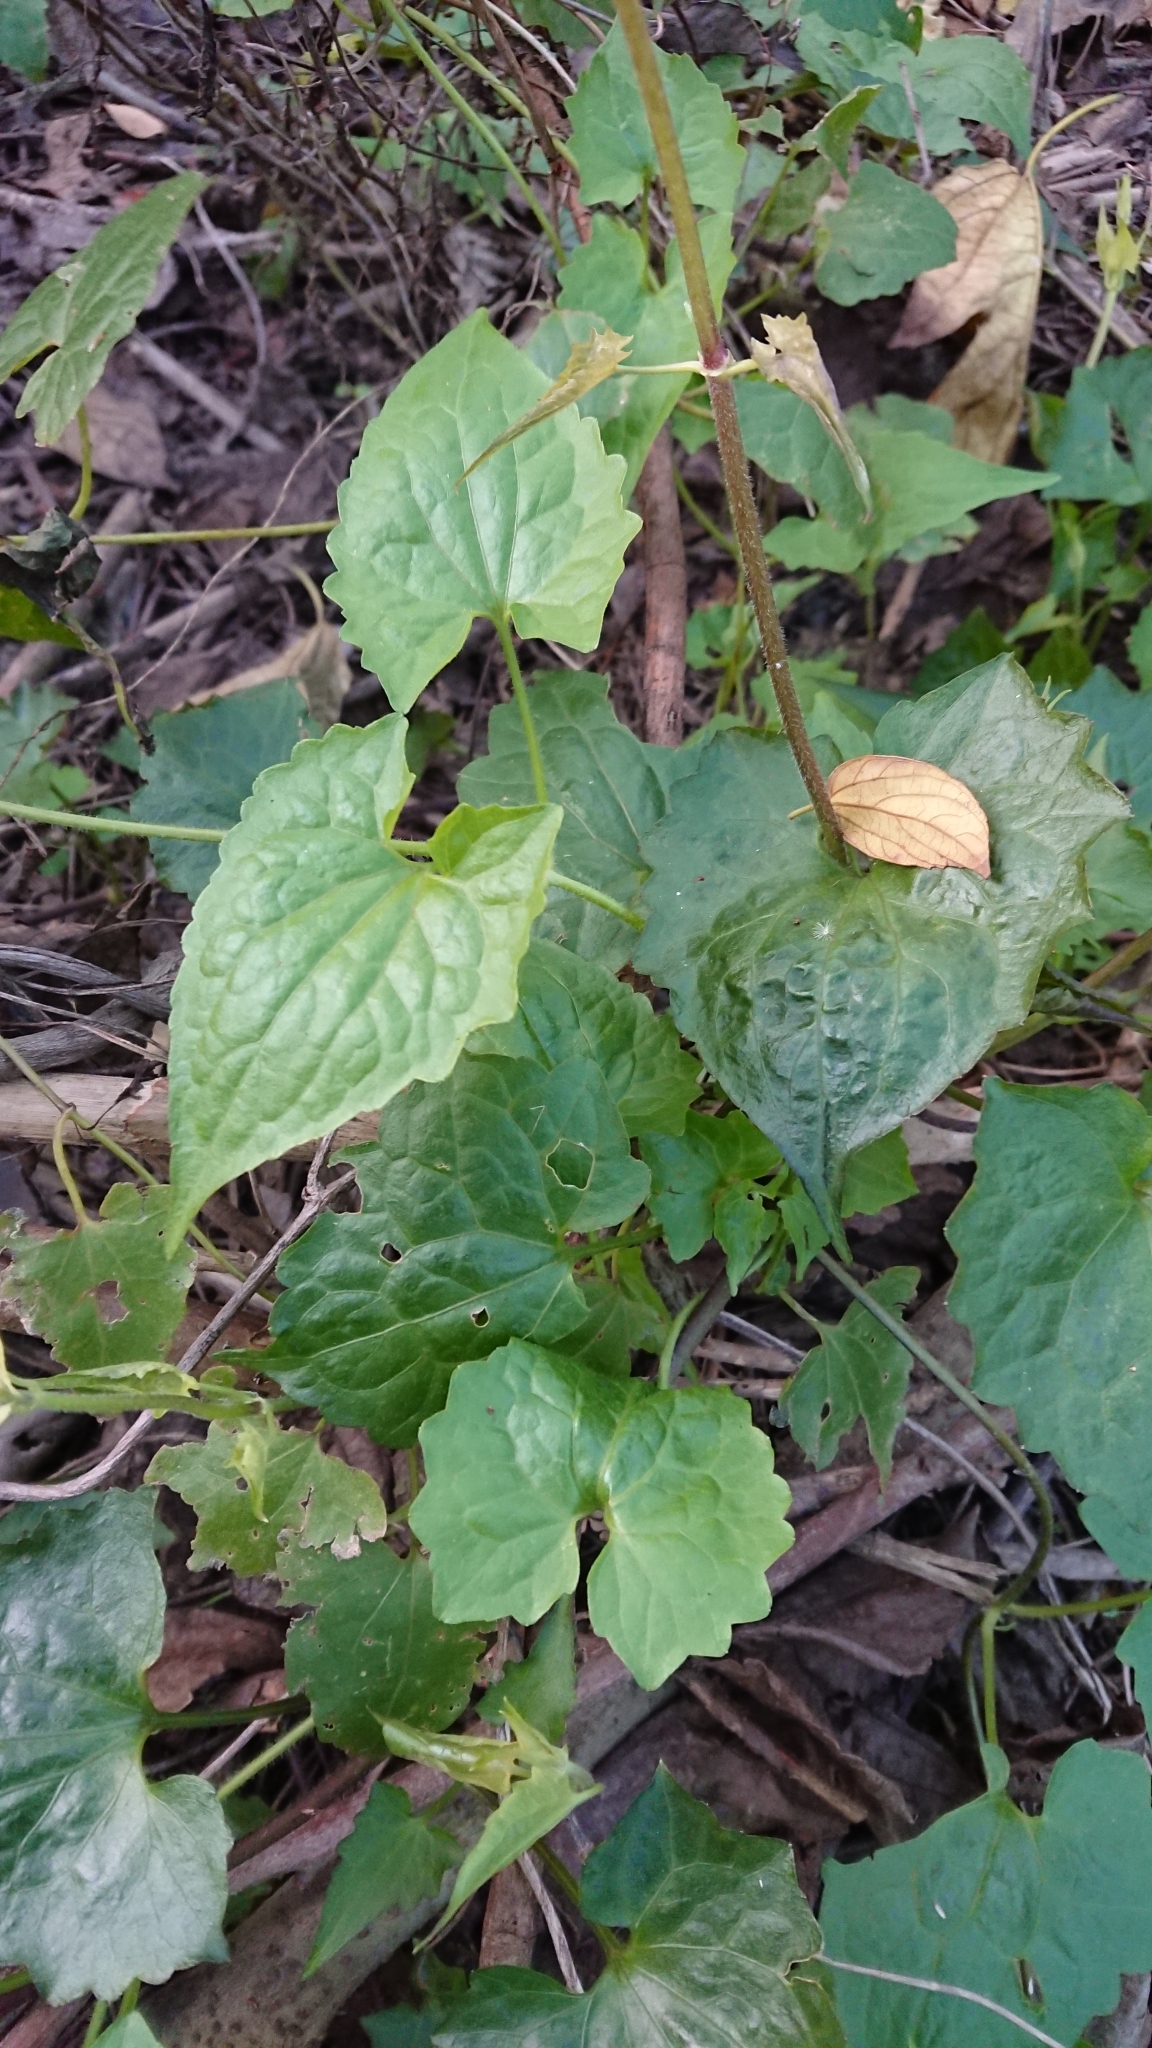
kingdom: Plantae
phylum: Tracheophyta
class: Magnoliopsida
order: Asterales
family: Asteraceae
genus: Mikania
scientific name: Mikania micrantha
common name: Mile-a-minute
